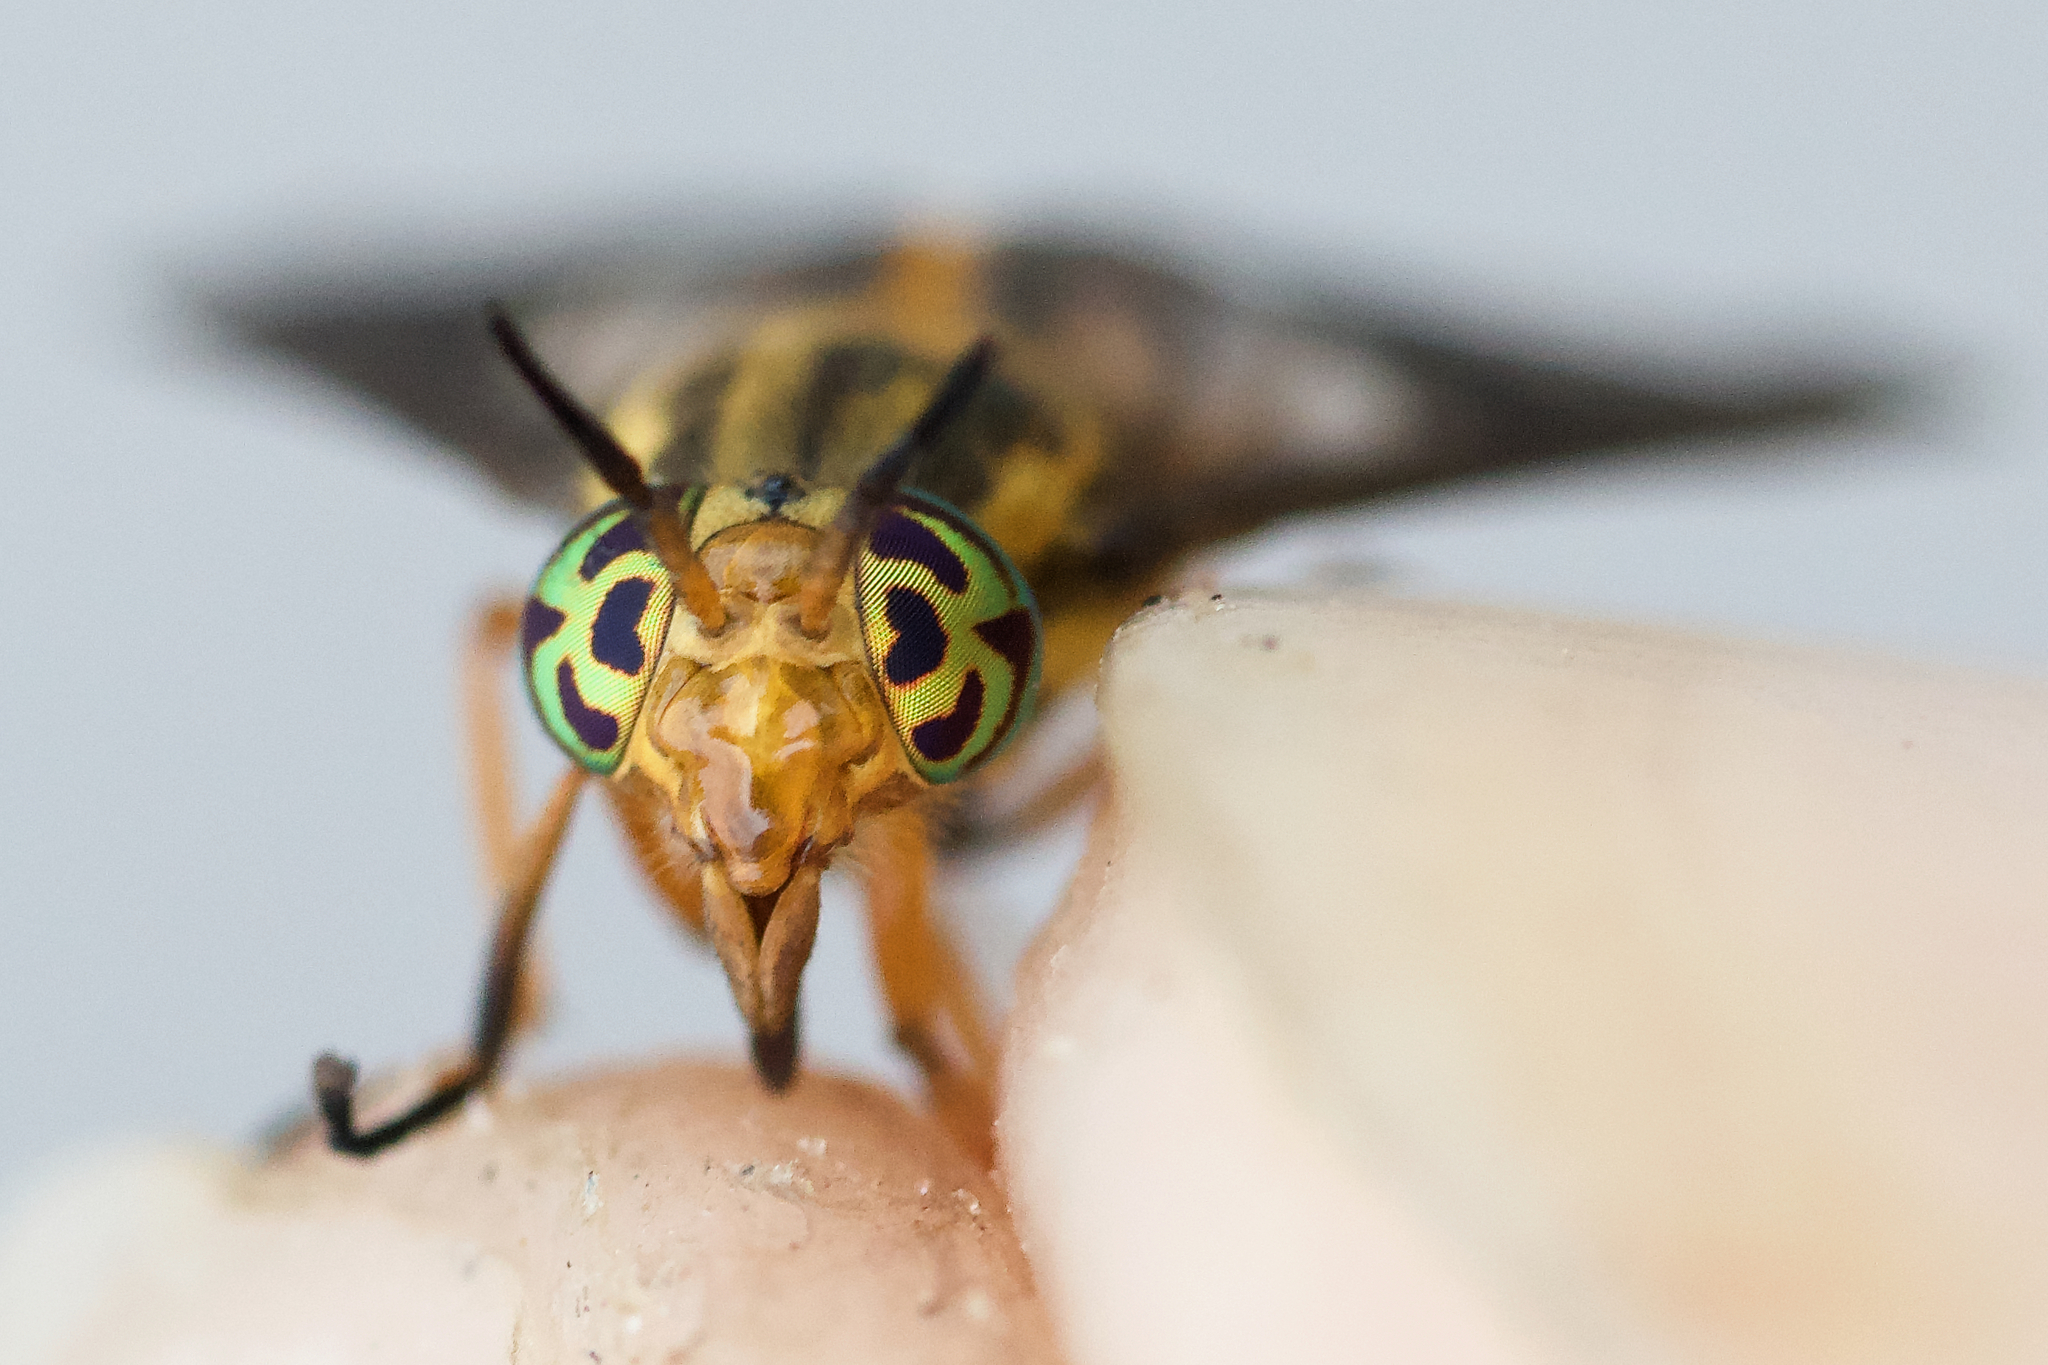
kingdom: Animalia
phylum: Arthropoda
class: Insecta
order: Diptera
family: Tabanidae
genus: Chrysops
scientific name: Chrysops vittatus
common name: Striped deer fly
